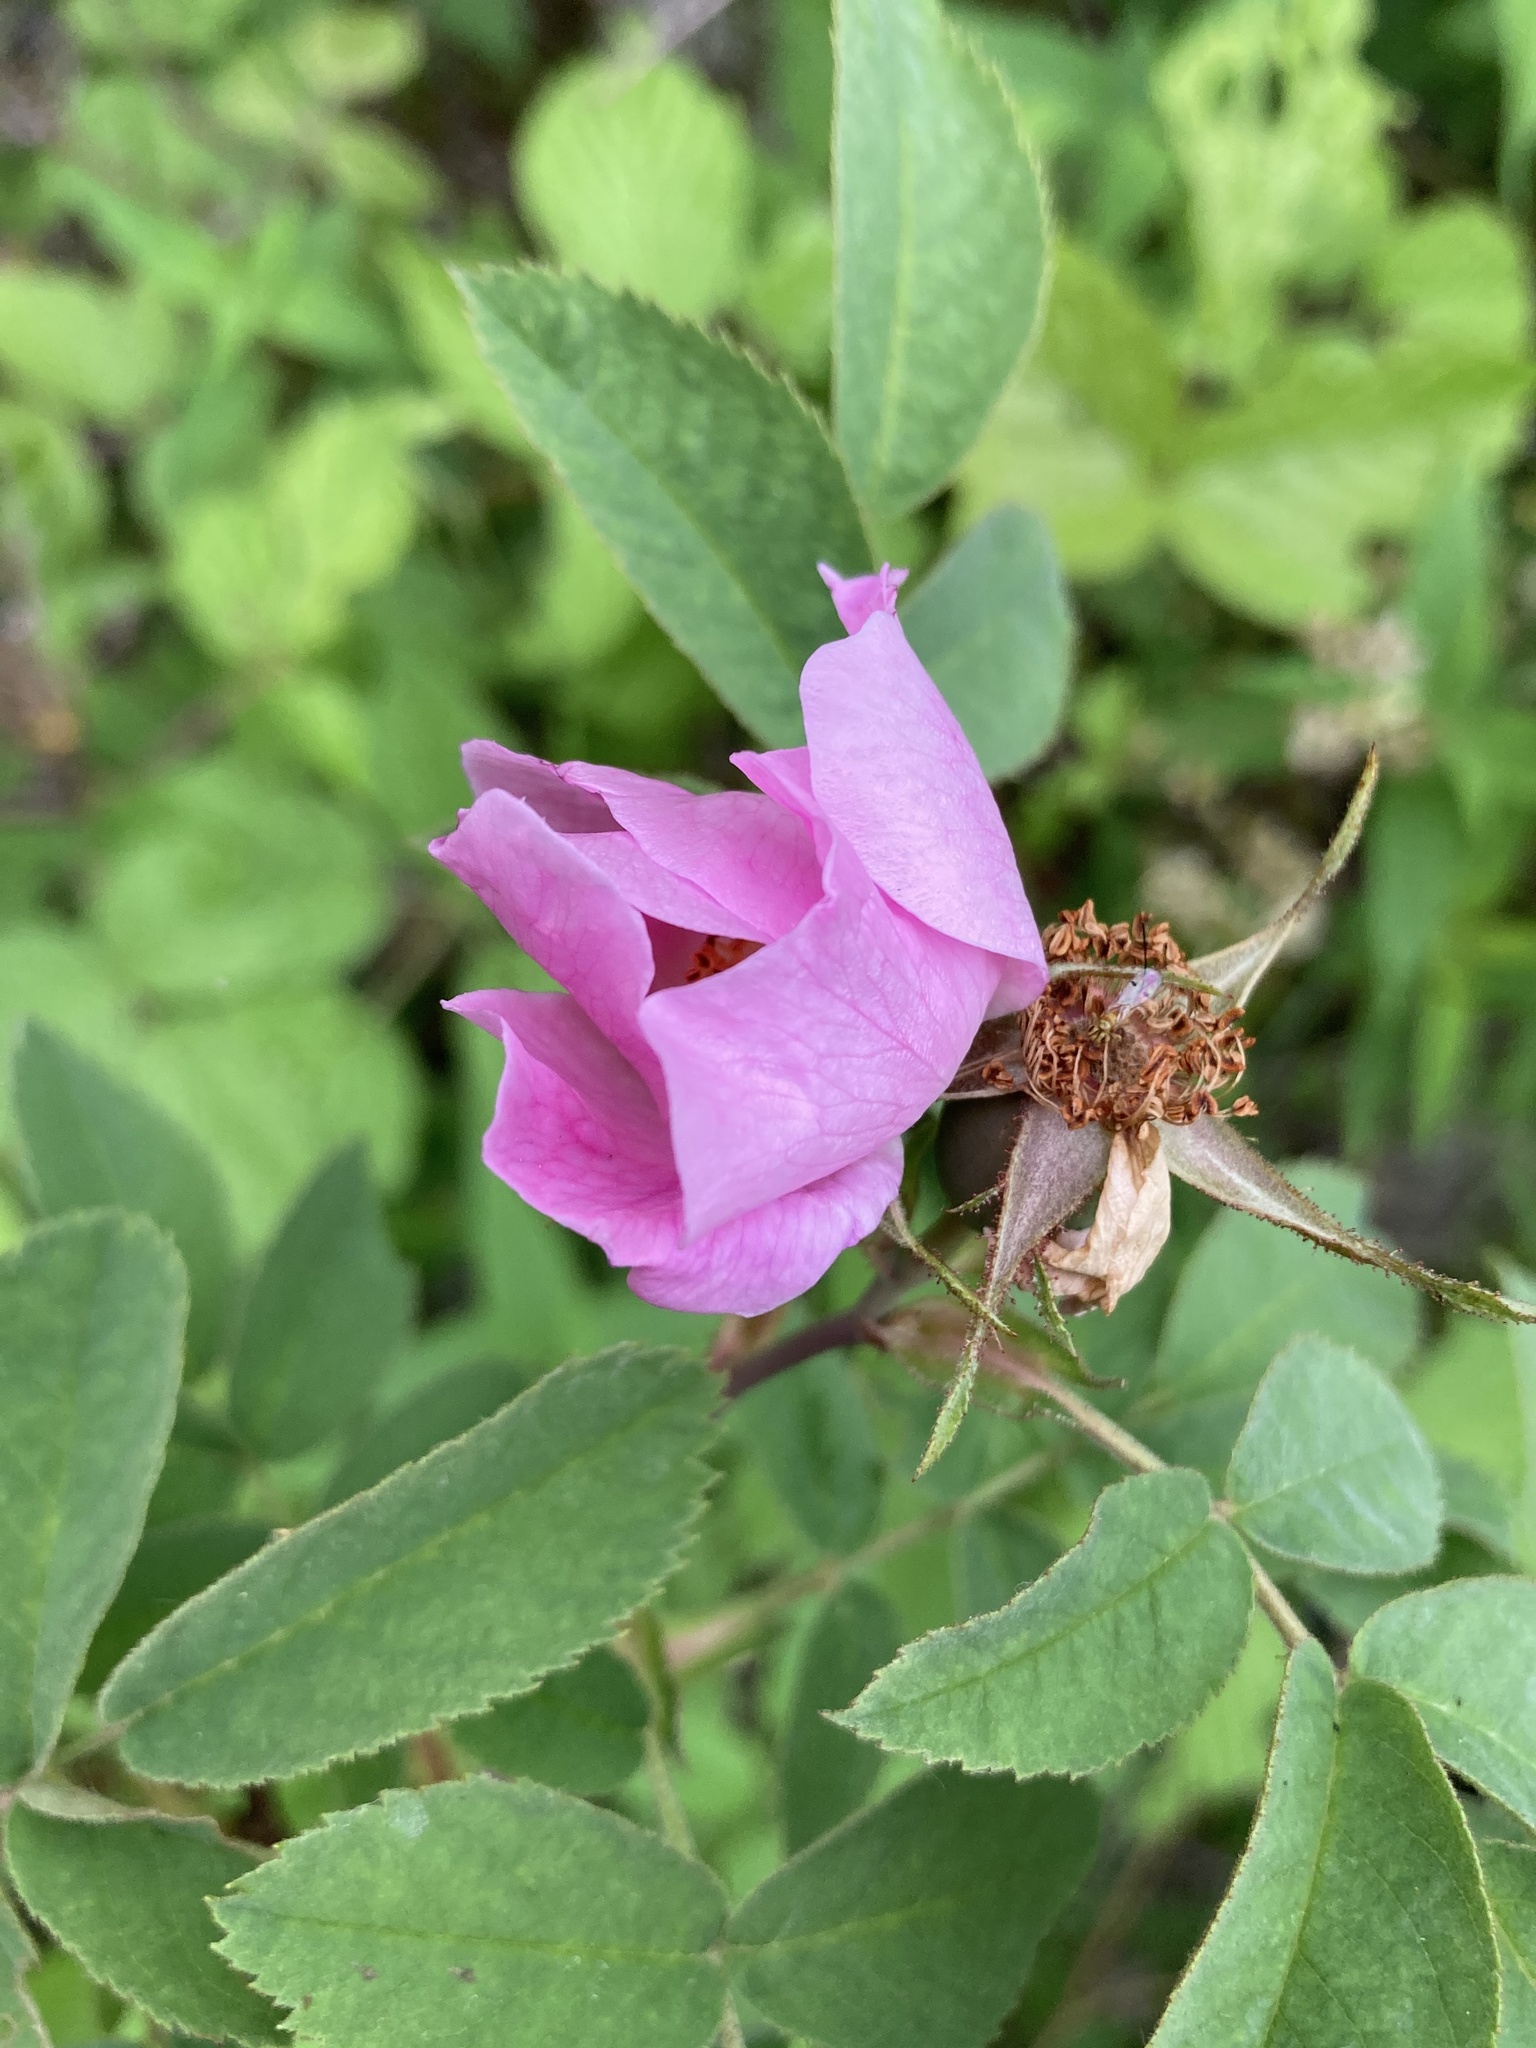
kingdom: Plantae
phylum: Tracheophyta
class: Magnoliopsida
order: Rosales
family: Rosaceae
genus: Rosa
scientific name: Rosa sherardii
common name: Sherard's downy rose
